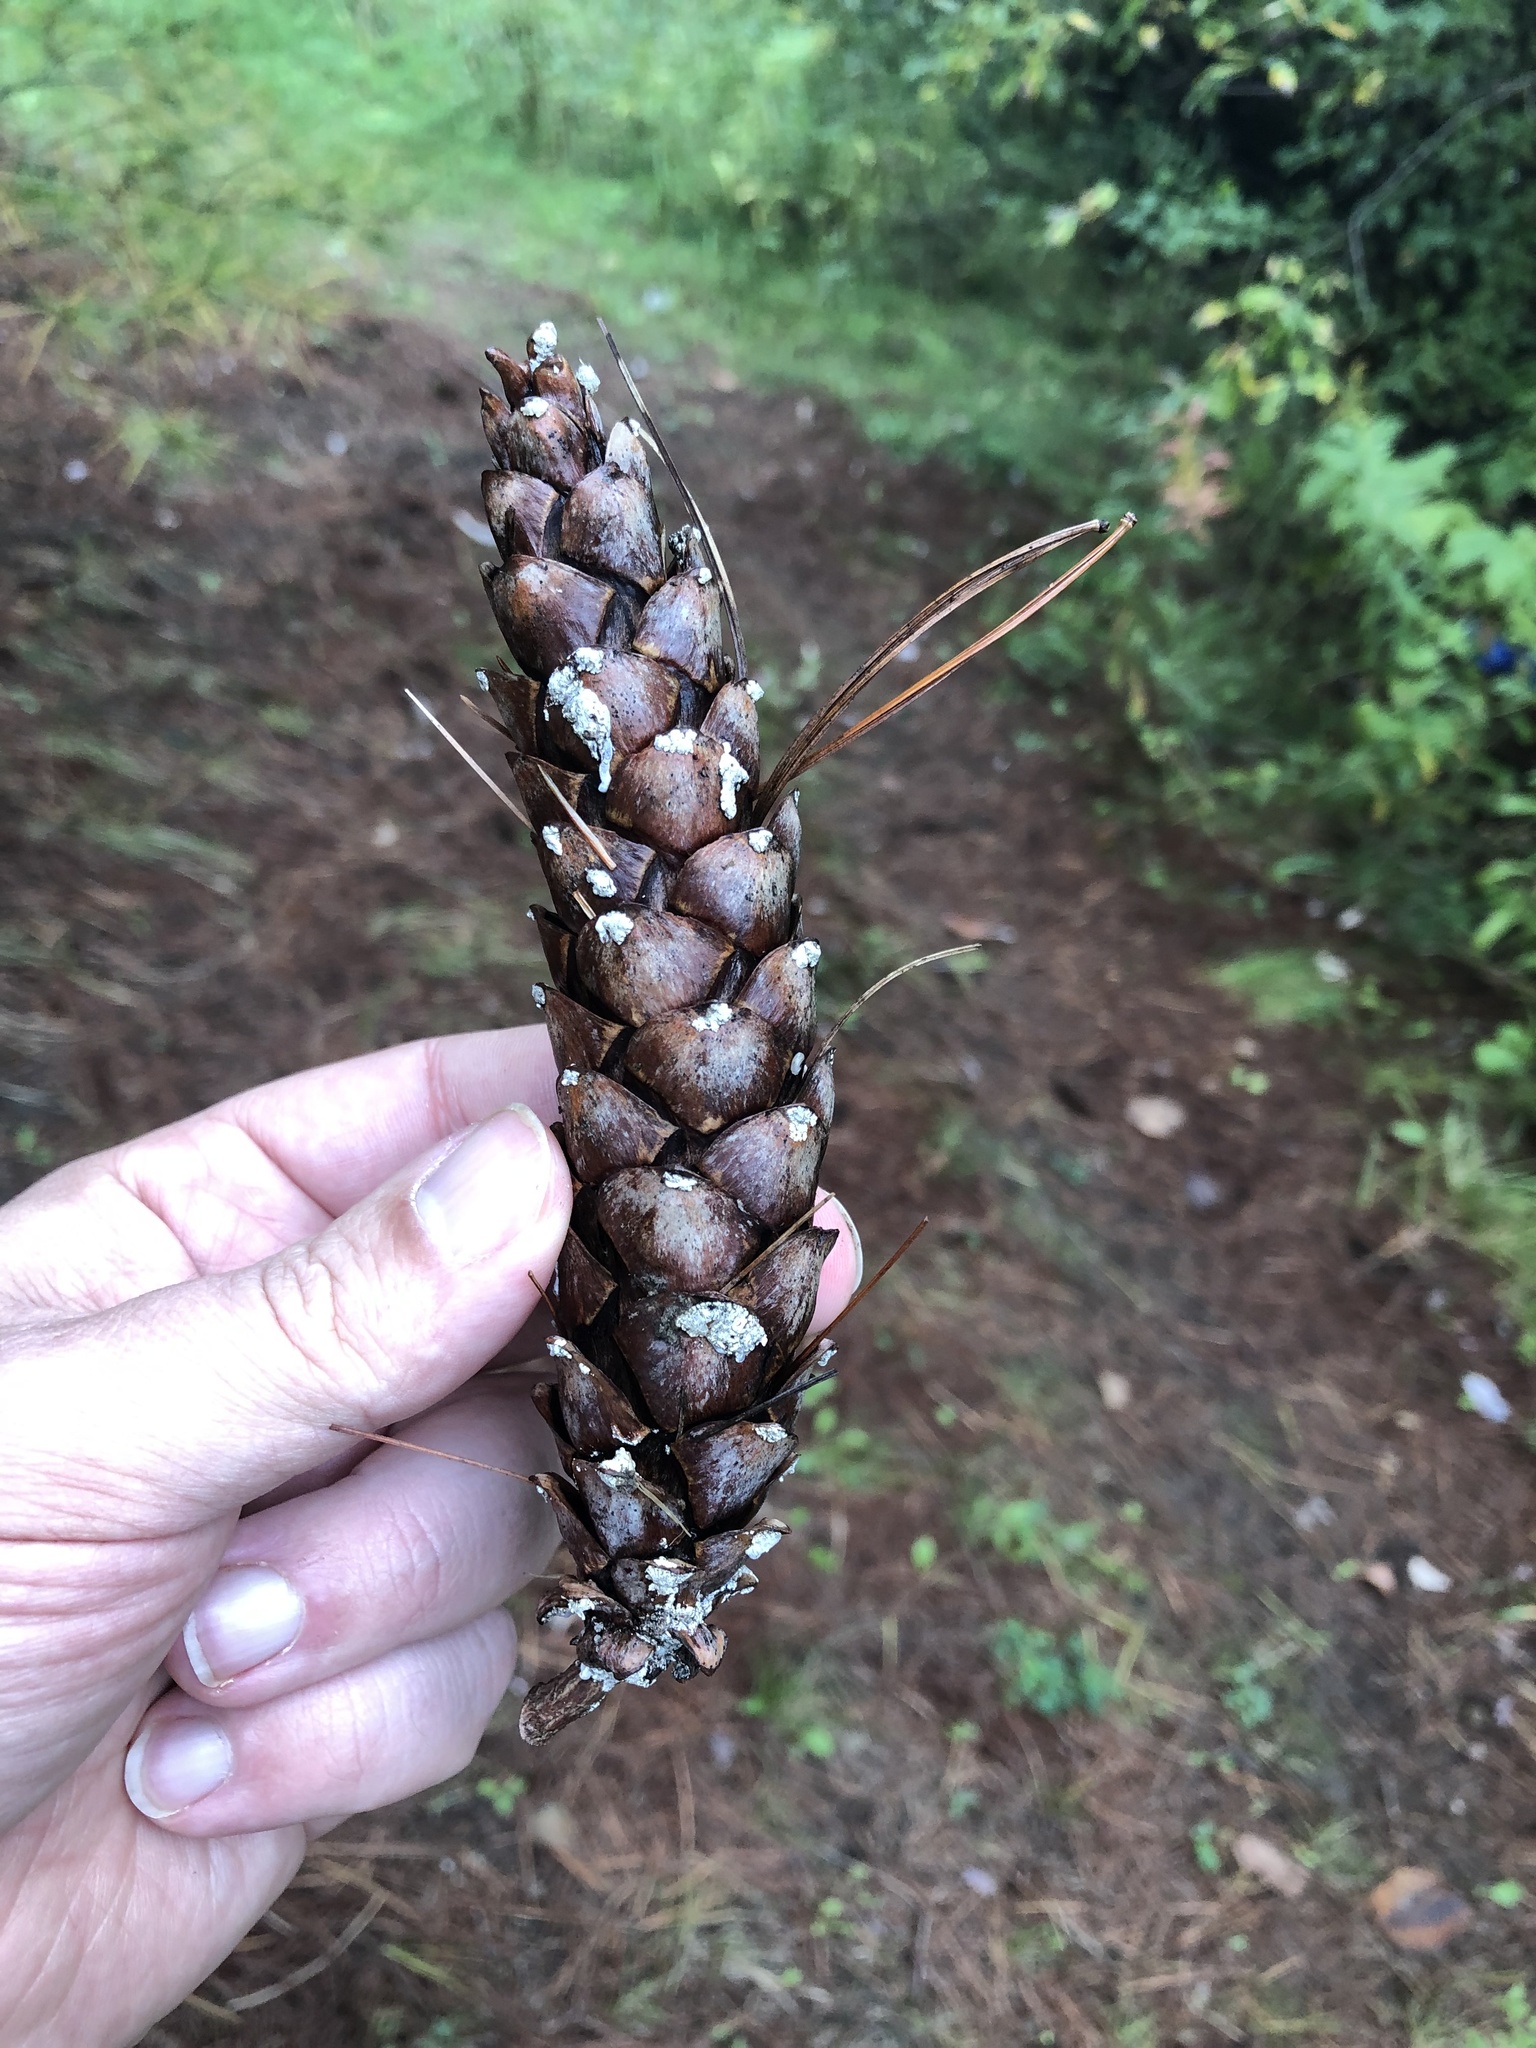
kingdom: Plantae
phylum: Tracheophyta
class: Pinopsida
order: Pinales
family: Pinaceae
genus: Pinus
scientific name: Pinus strobus
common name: Weymouth pine
